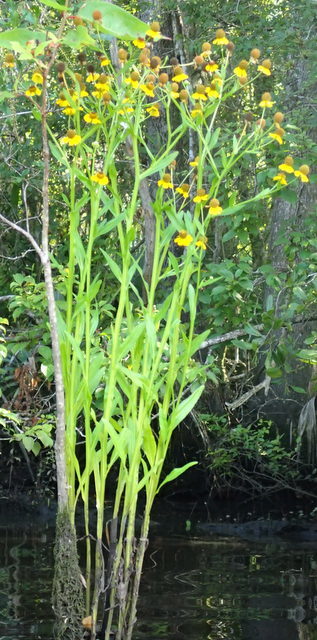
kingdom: Plantae
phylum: Tracheophyta
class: Magnoliopsida
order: Asterales
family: Asteraceae
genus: Helenium
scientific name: Helenium autumnale
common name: Sneezeweed
